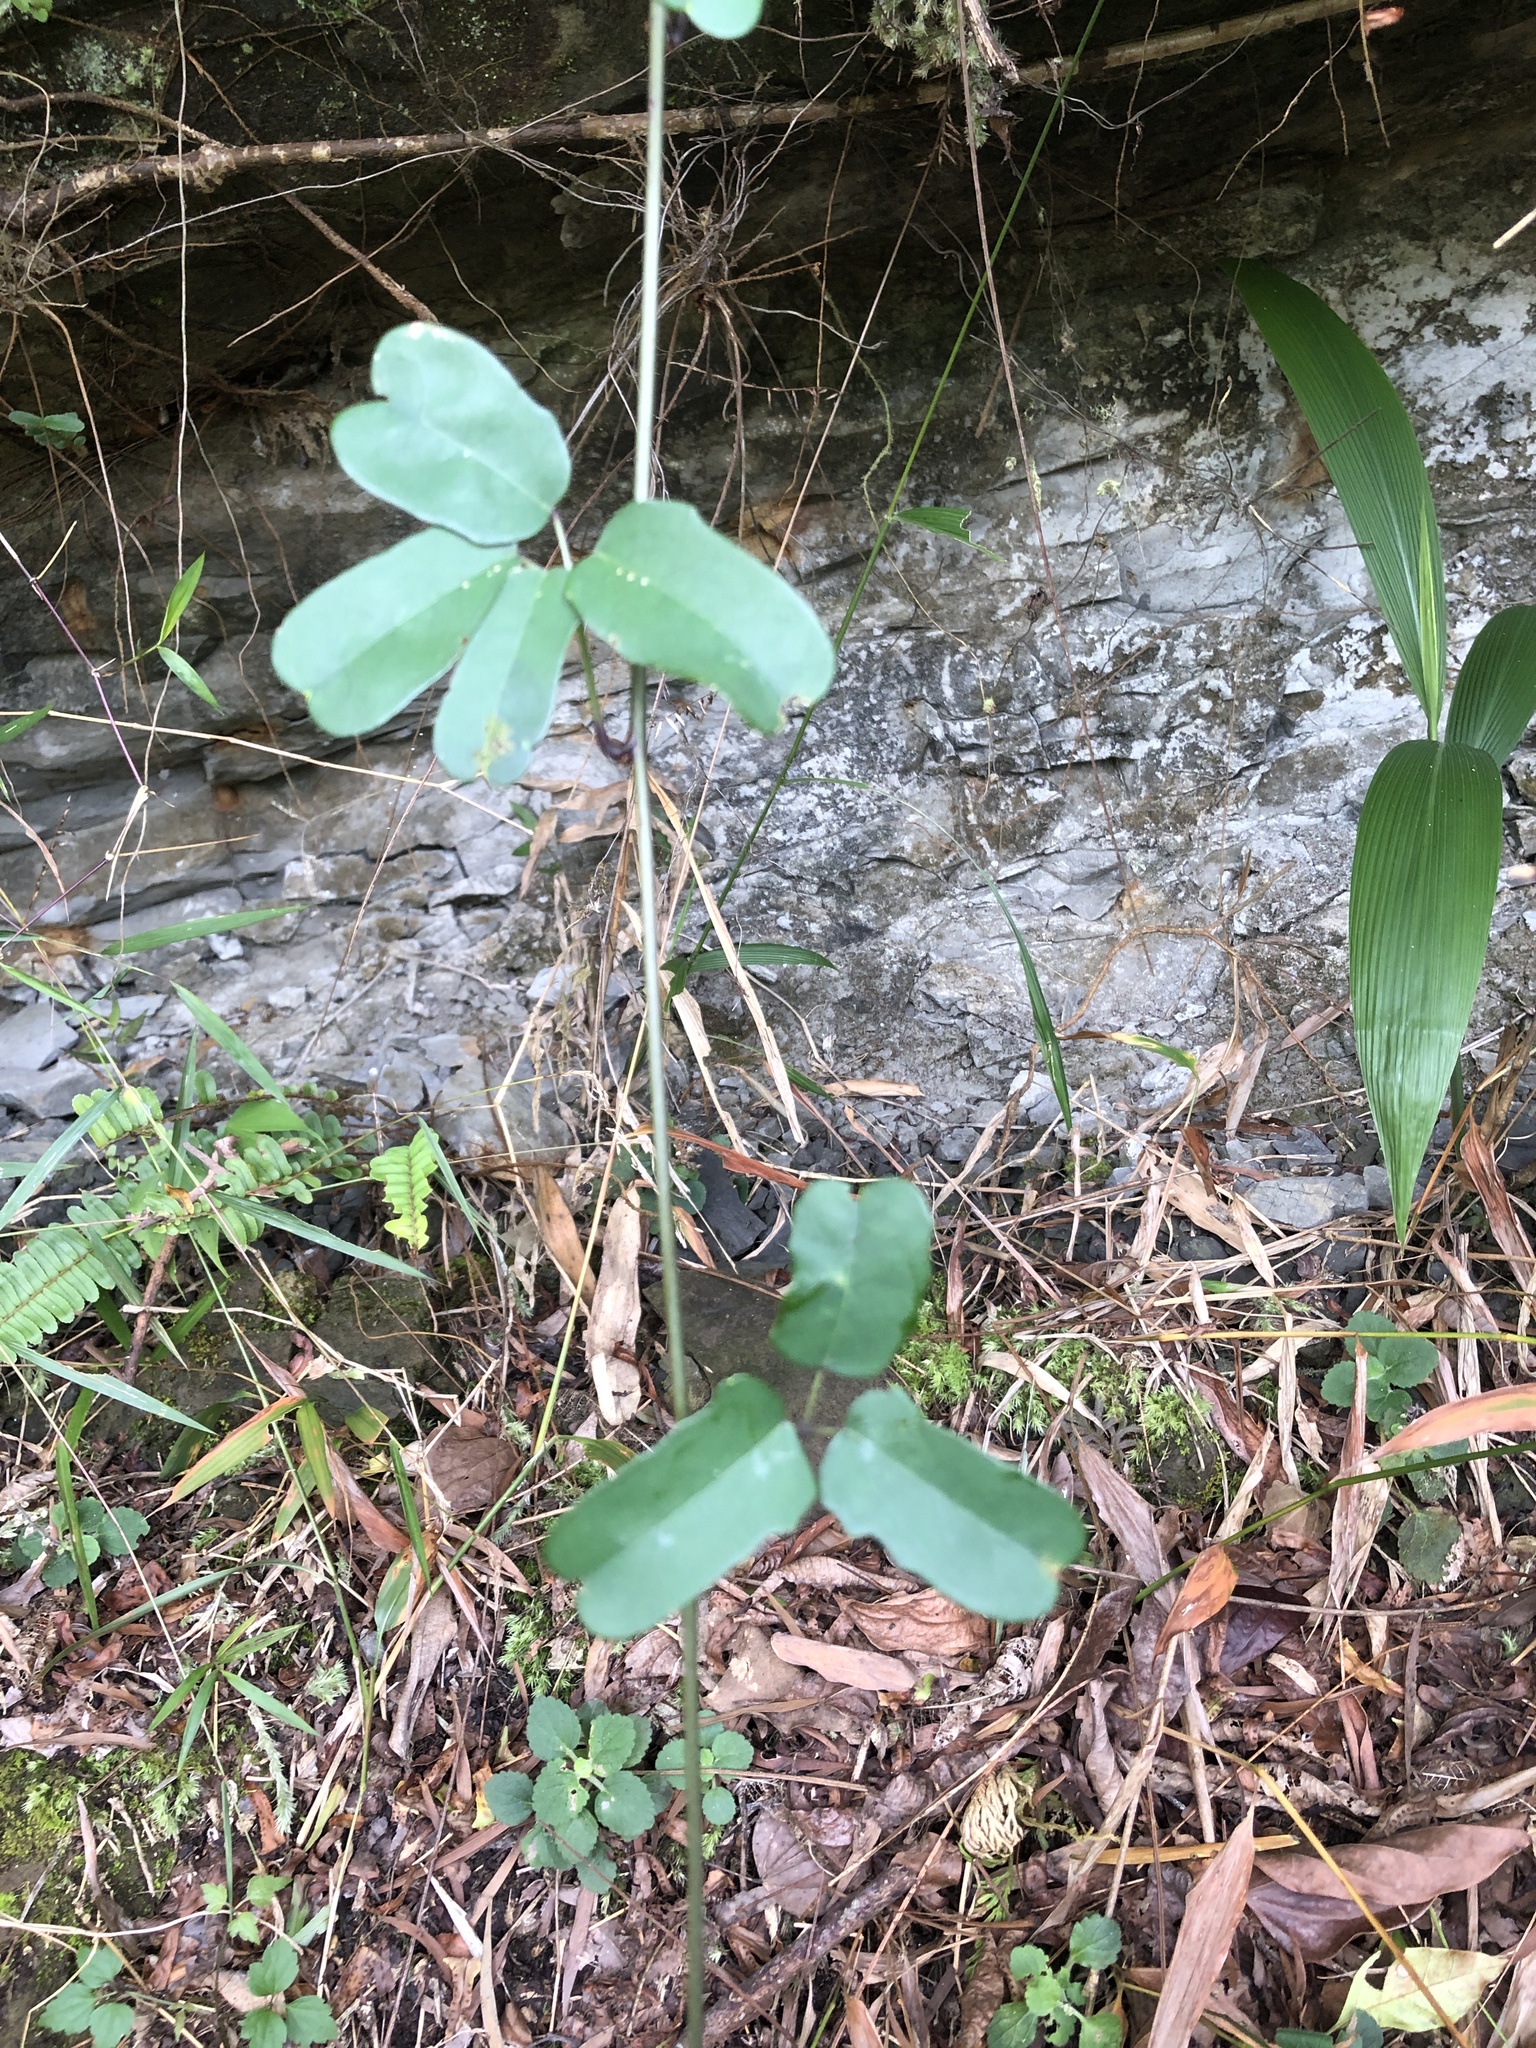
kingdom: Plantae
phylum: Tracheophyta
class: Magnoliopsida
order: Ranunculales
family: Lardizabalaceae
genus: Stauntonia
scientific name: Stauntonia obovatifoliola
